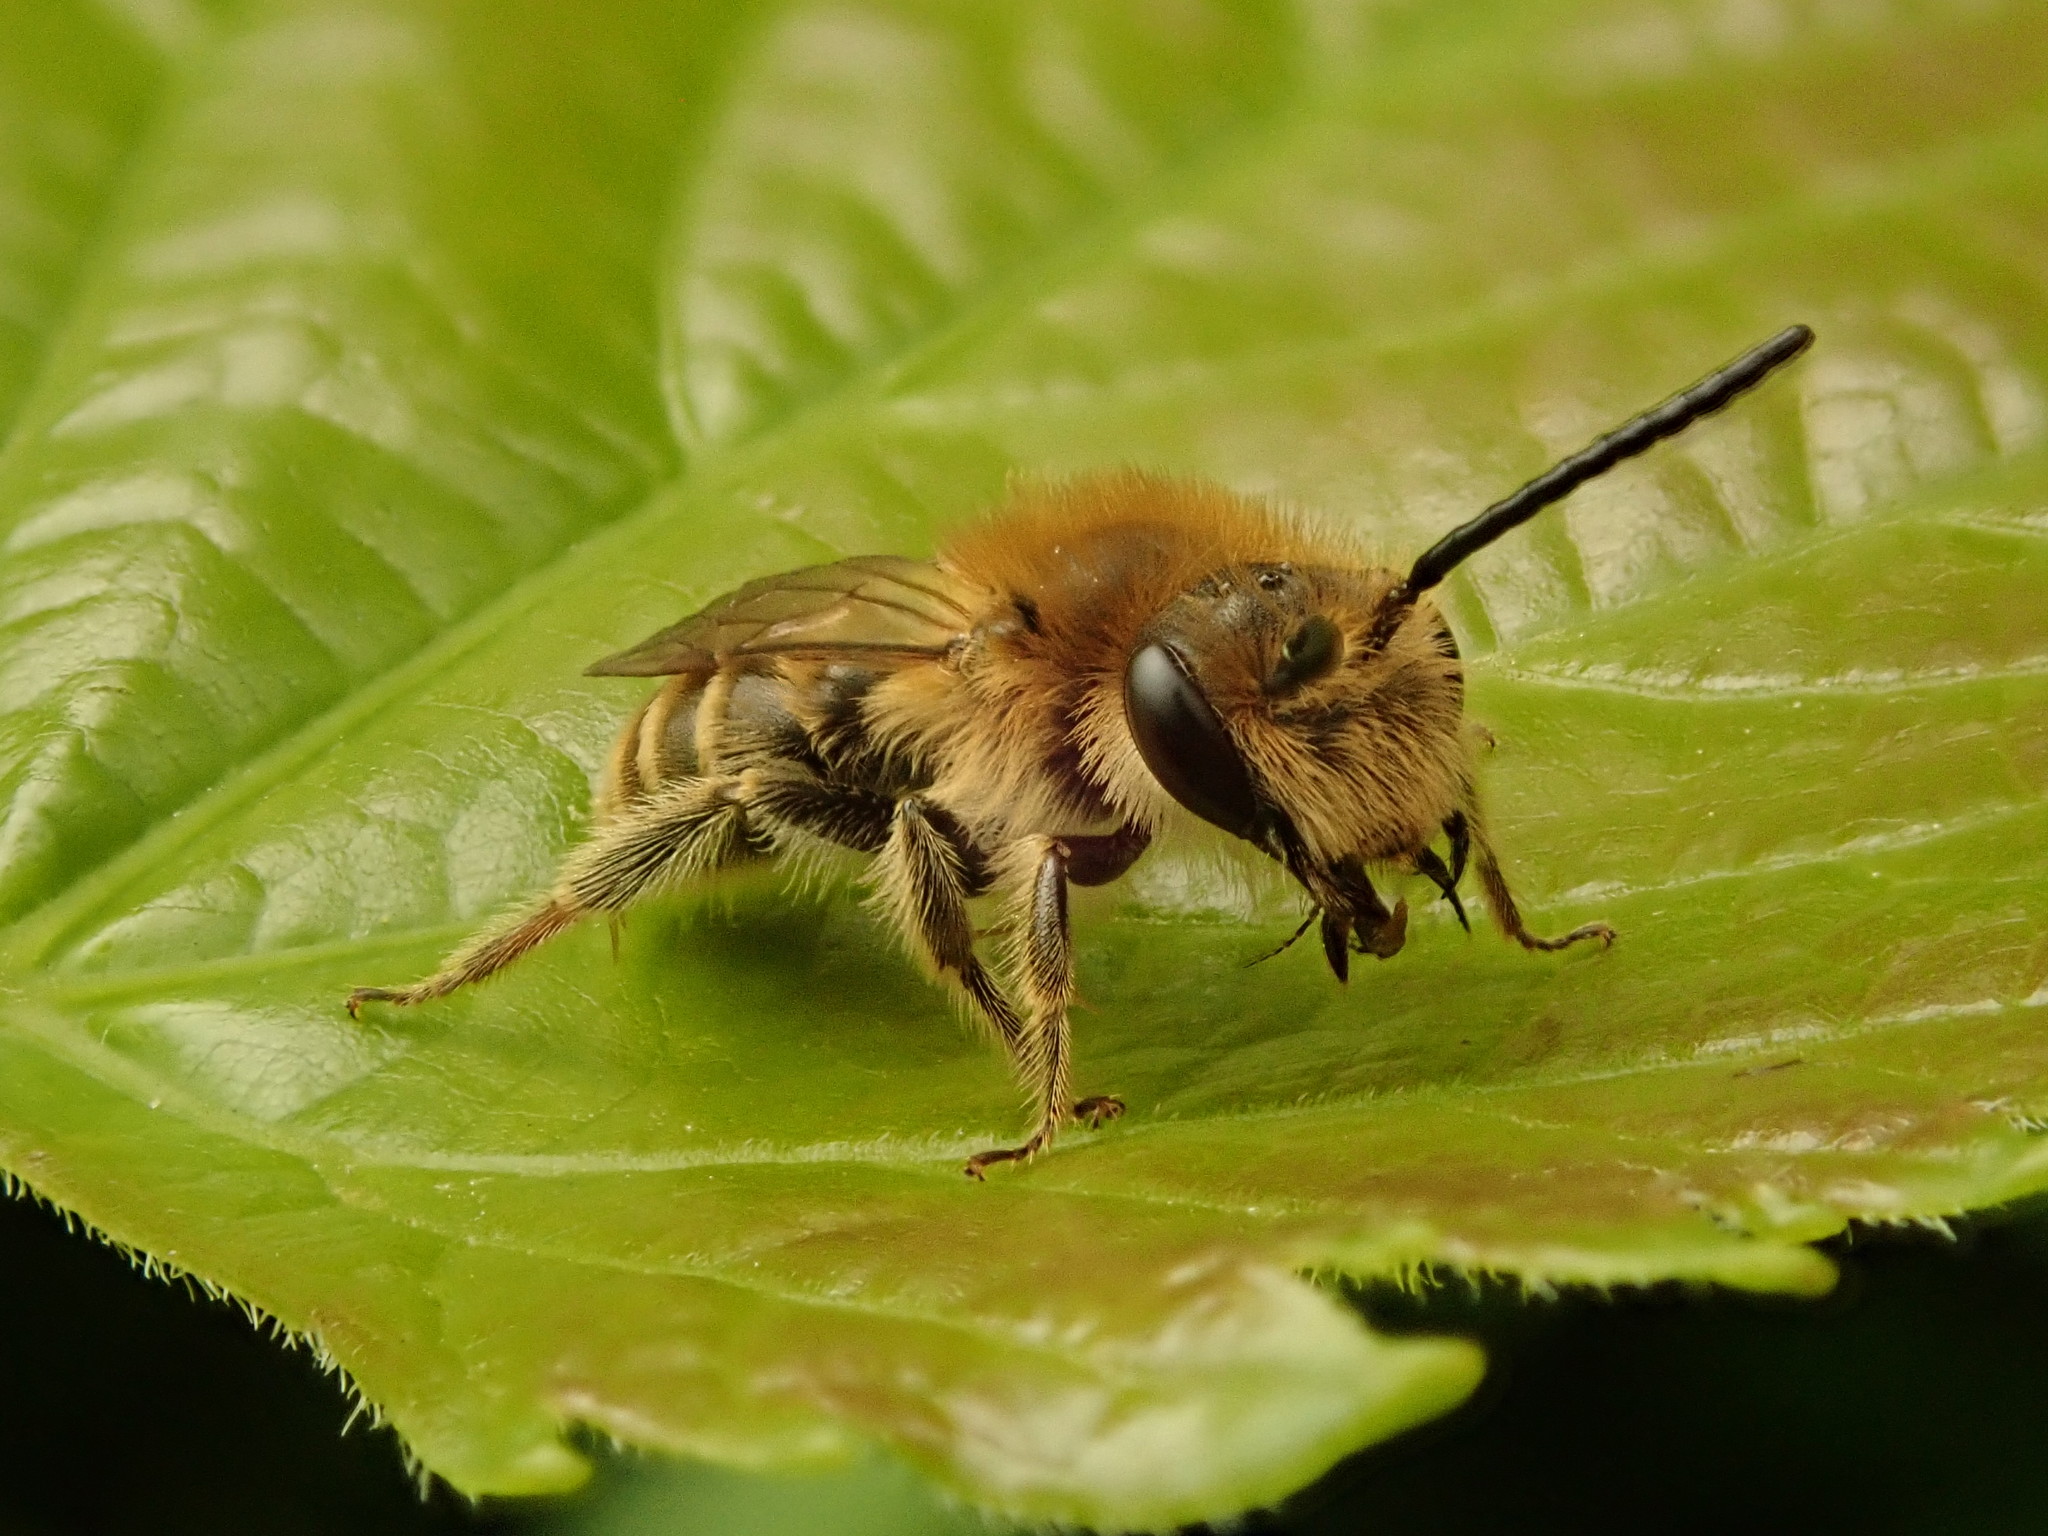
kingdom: Animalia
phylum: Arthropoda
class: Insecta
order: Hymenoptera
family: Andrenidae
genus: Andrena
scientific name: Andrena wilkella
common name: Wilke's mining bee
